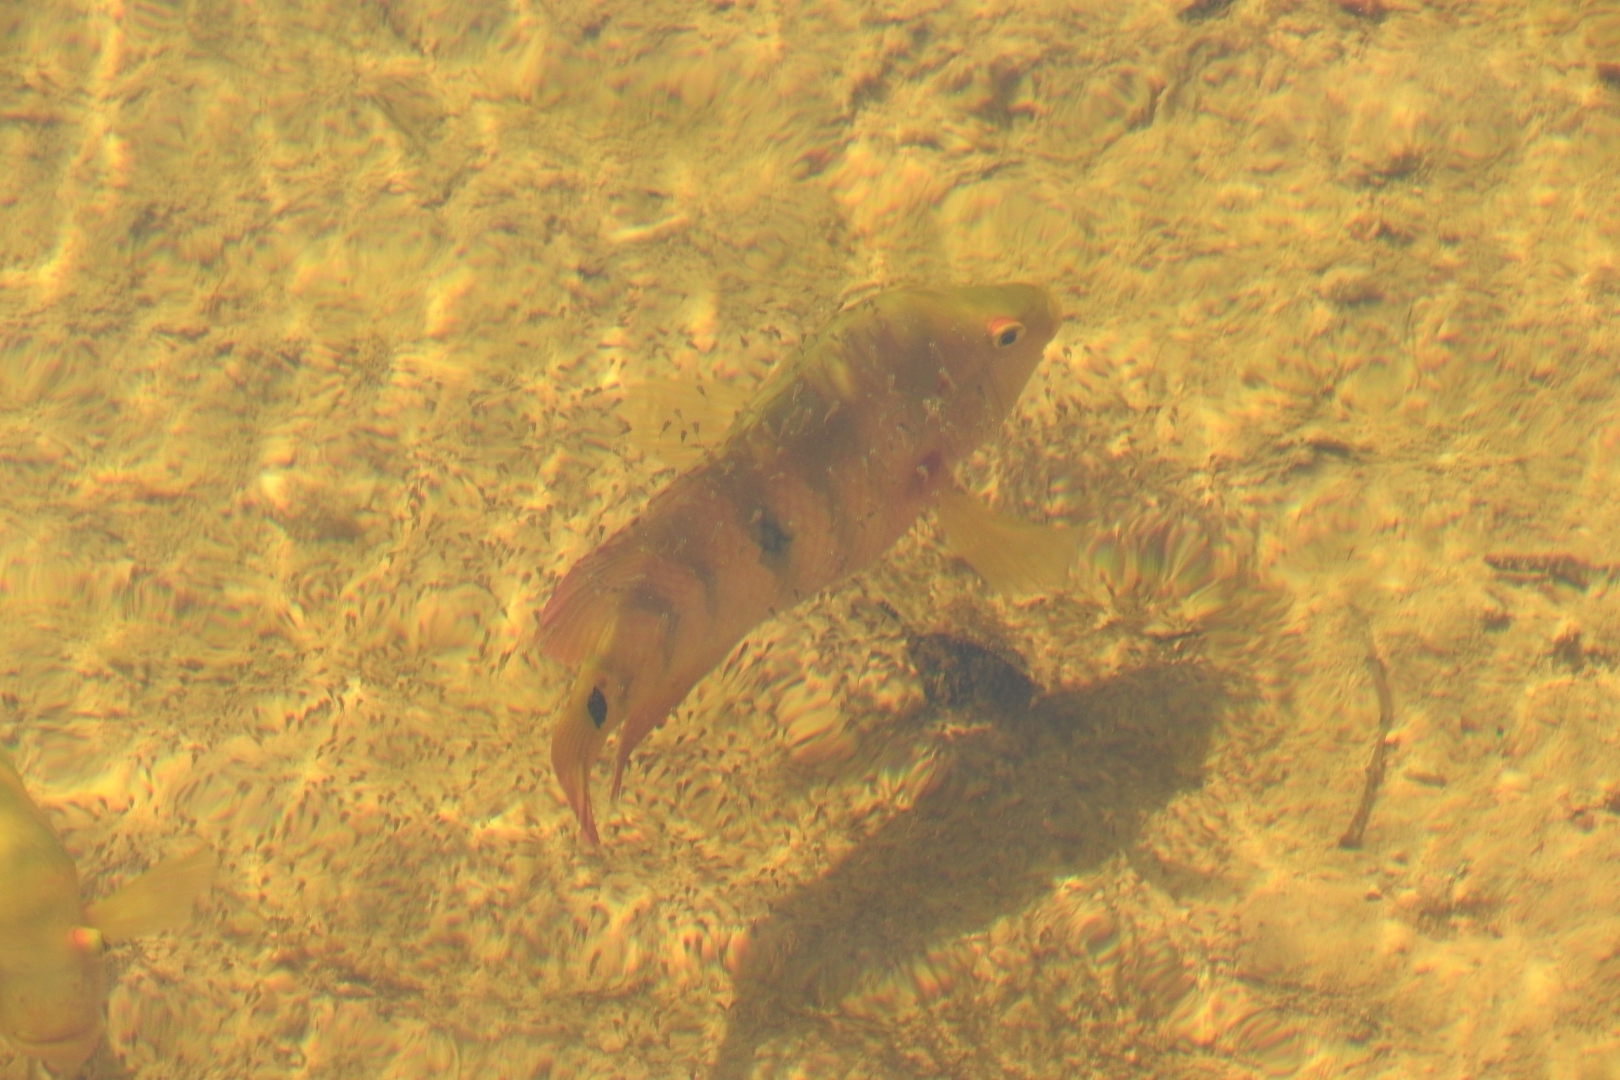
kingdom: Animalia
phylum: Chordata
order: Perciformes
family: Cichlidae
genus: Mayaheros
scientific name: Mayaheros urophthalmus
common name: Mayan cichlid
